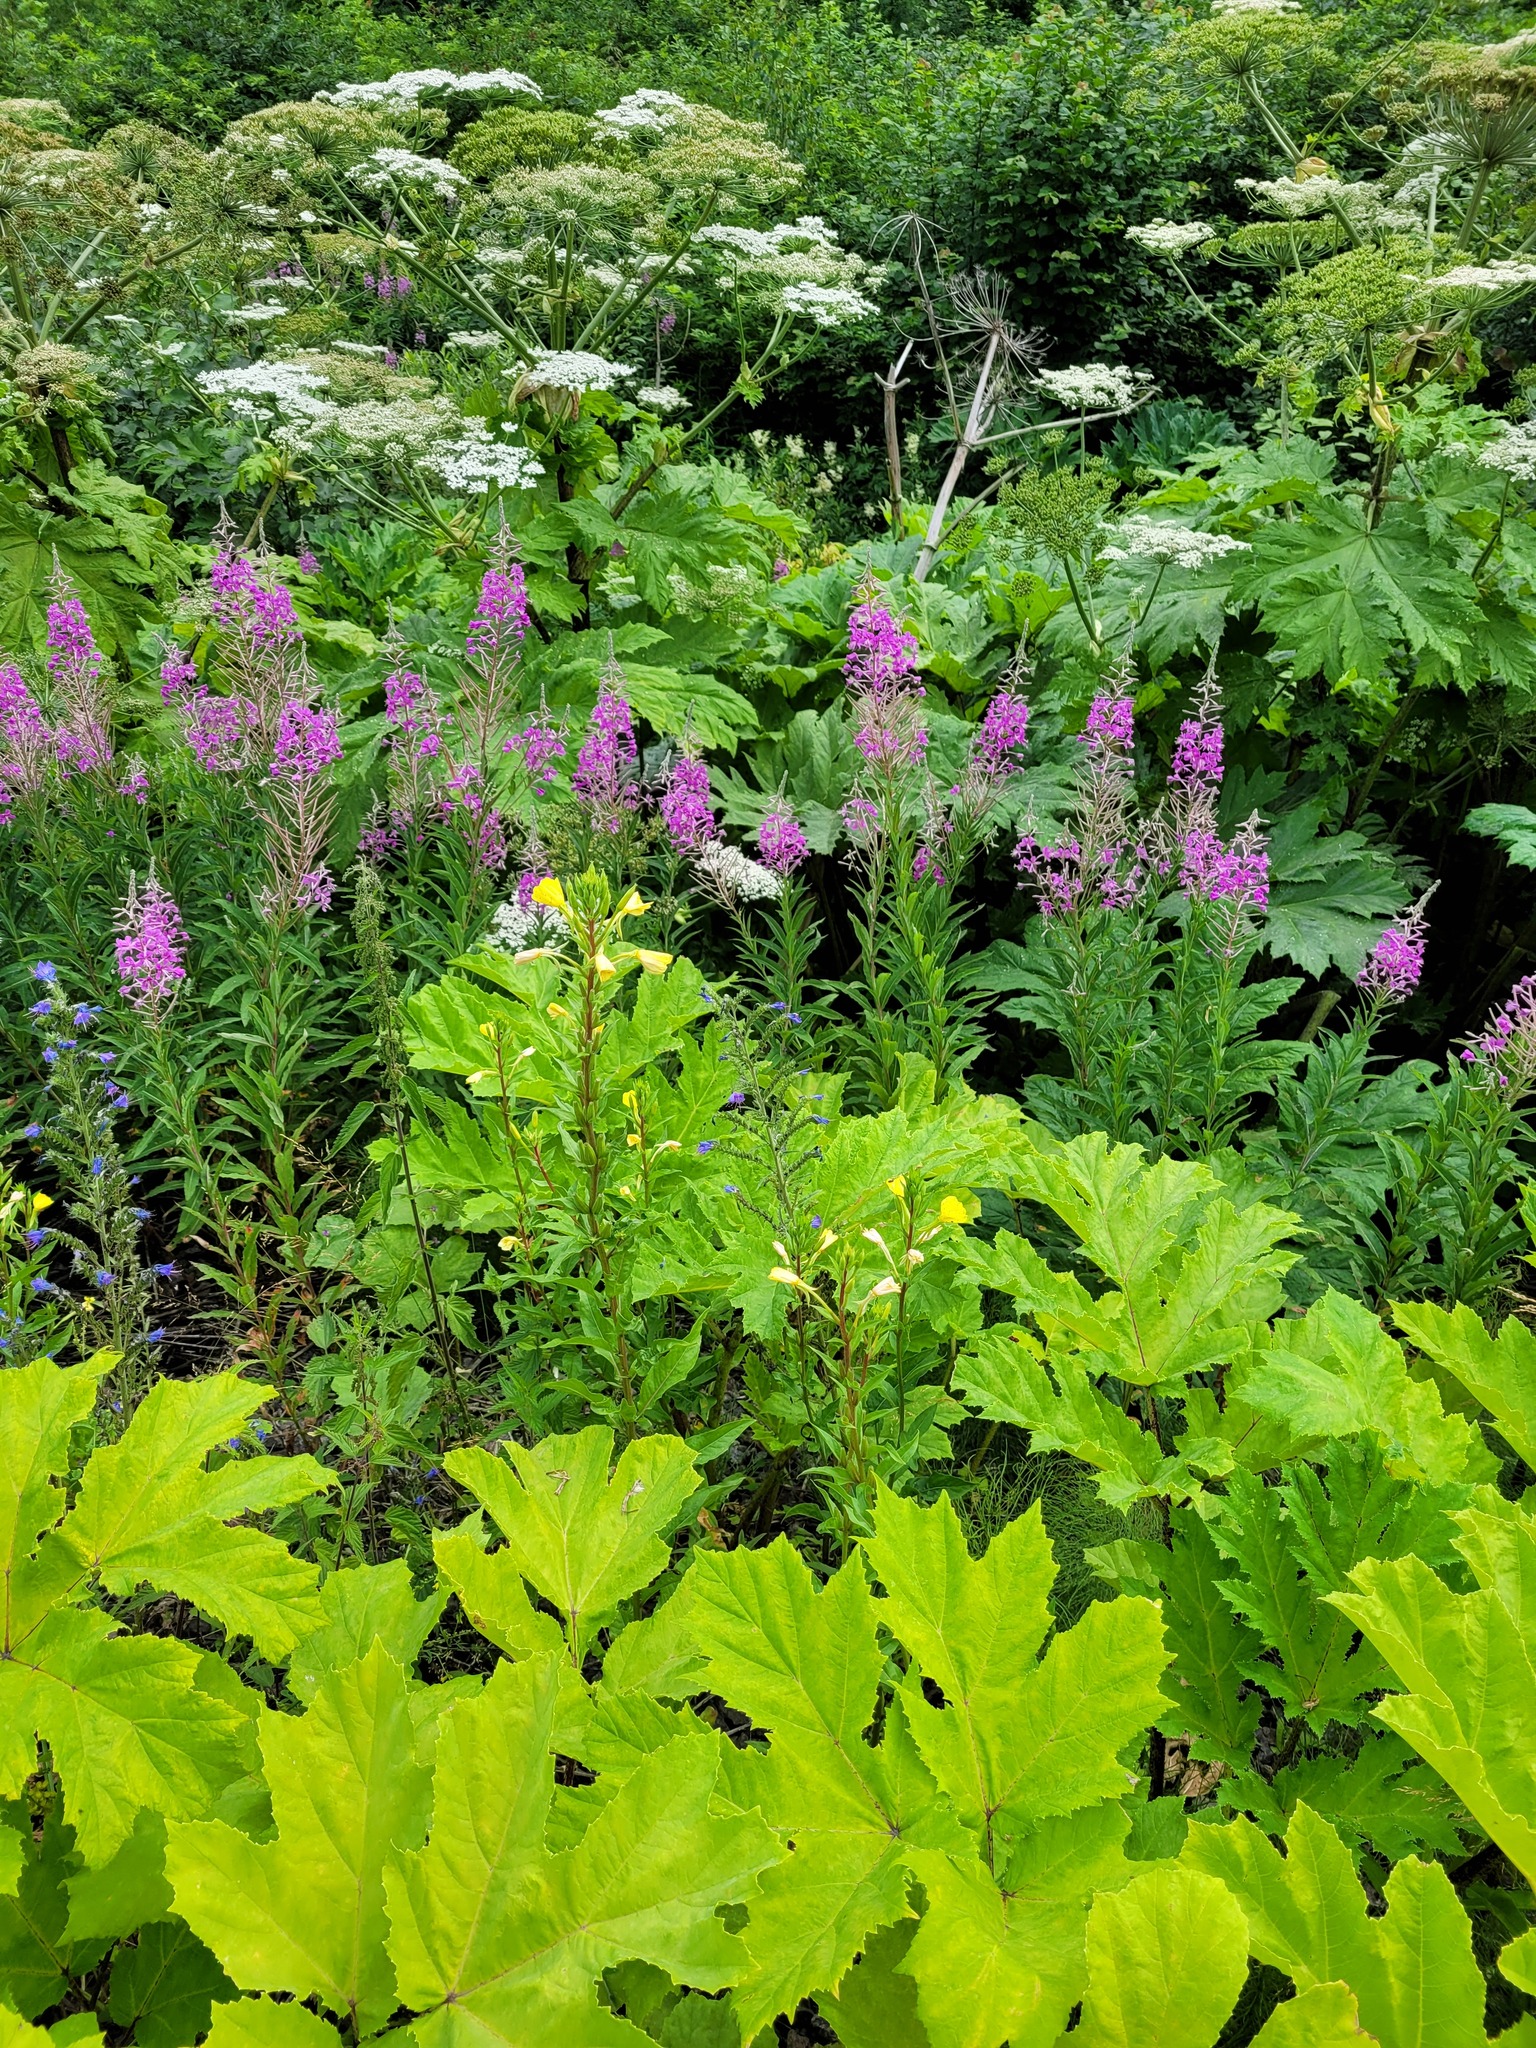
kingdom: Plantae
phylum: Tracheophyta
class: Magnoliopsida
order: Myrtales
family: Onagraceae
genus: Oenothera
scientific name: Oenothera rubricaulis
